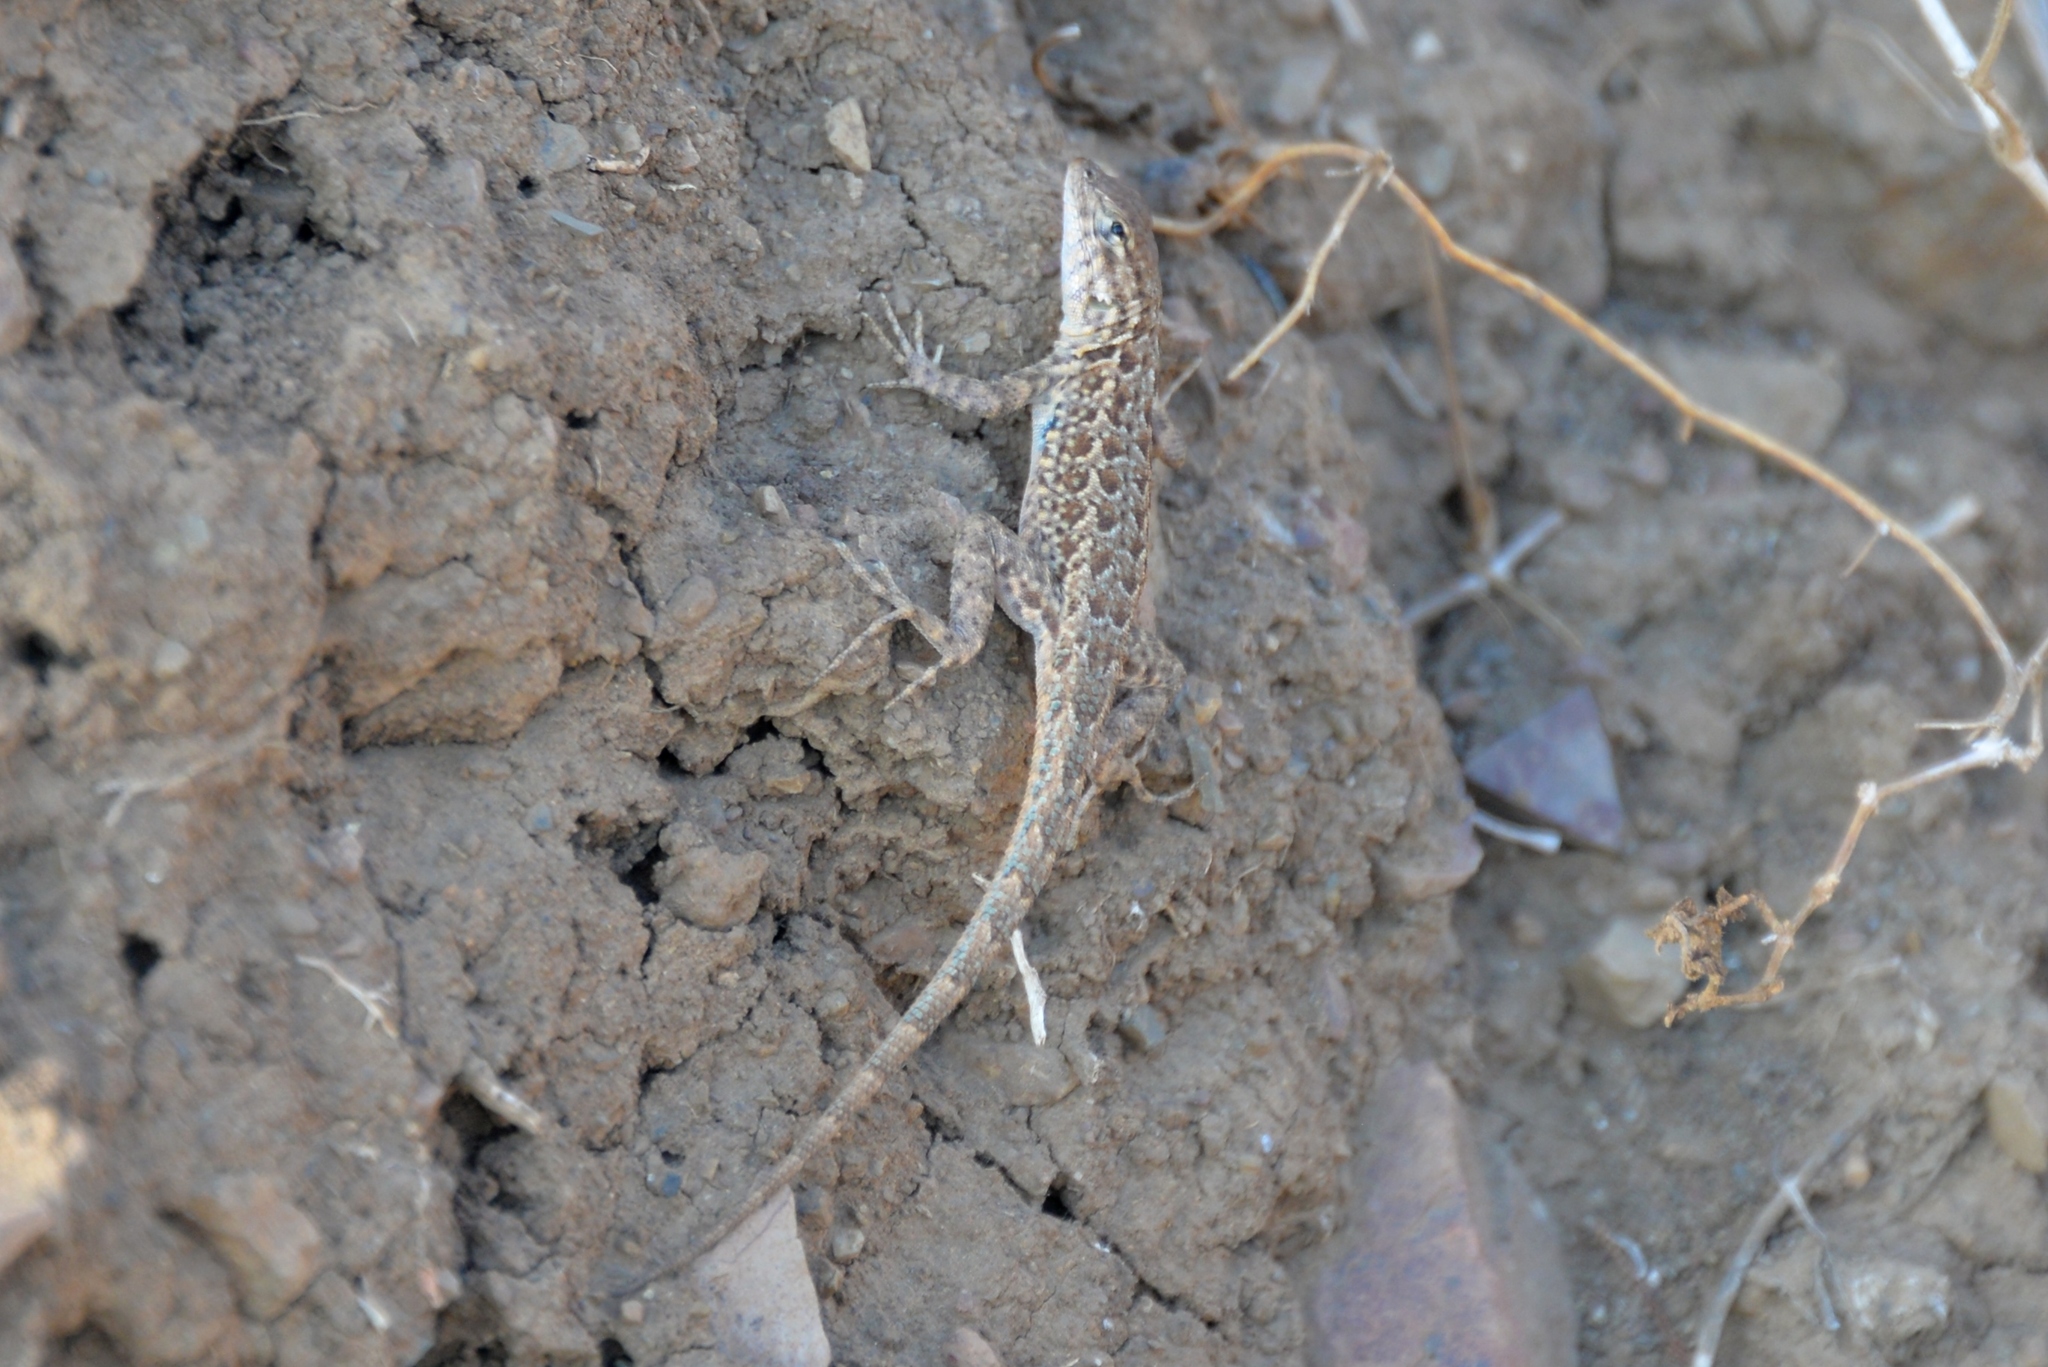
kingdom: Animalia
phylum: Chordata
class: Squamata
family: Phrynosomatidae
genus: Uta
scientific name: Uta stansburiana
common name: Side-blotched lizard
